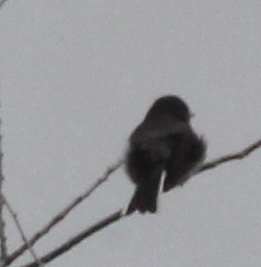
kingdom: Animalia
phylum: Chordata
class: Aves
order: Passeriformes
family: Passerellidae
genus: Junco
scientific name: Junco hyemalis
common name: Dark-eyed junco
